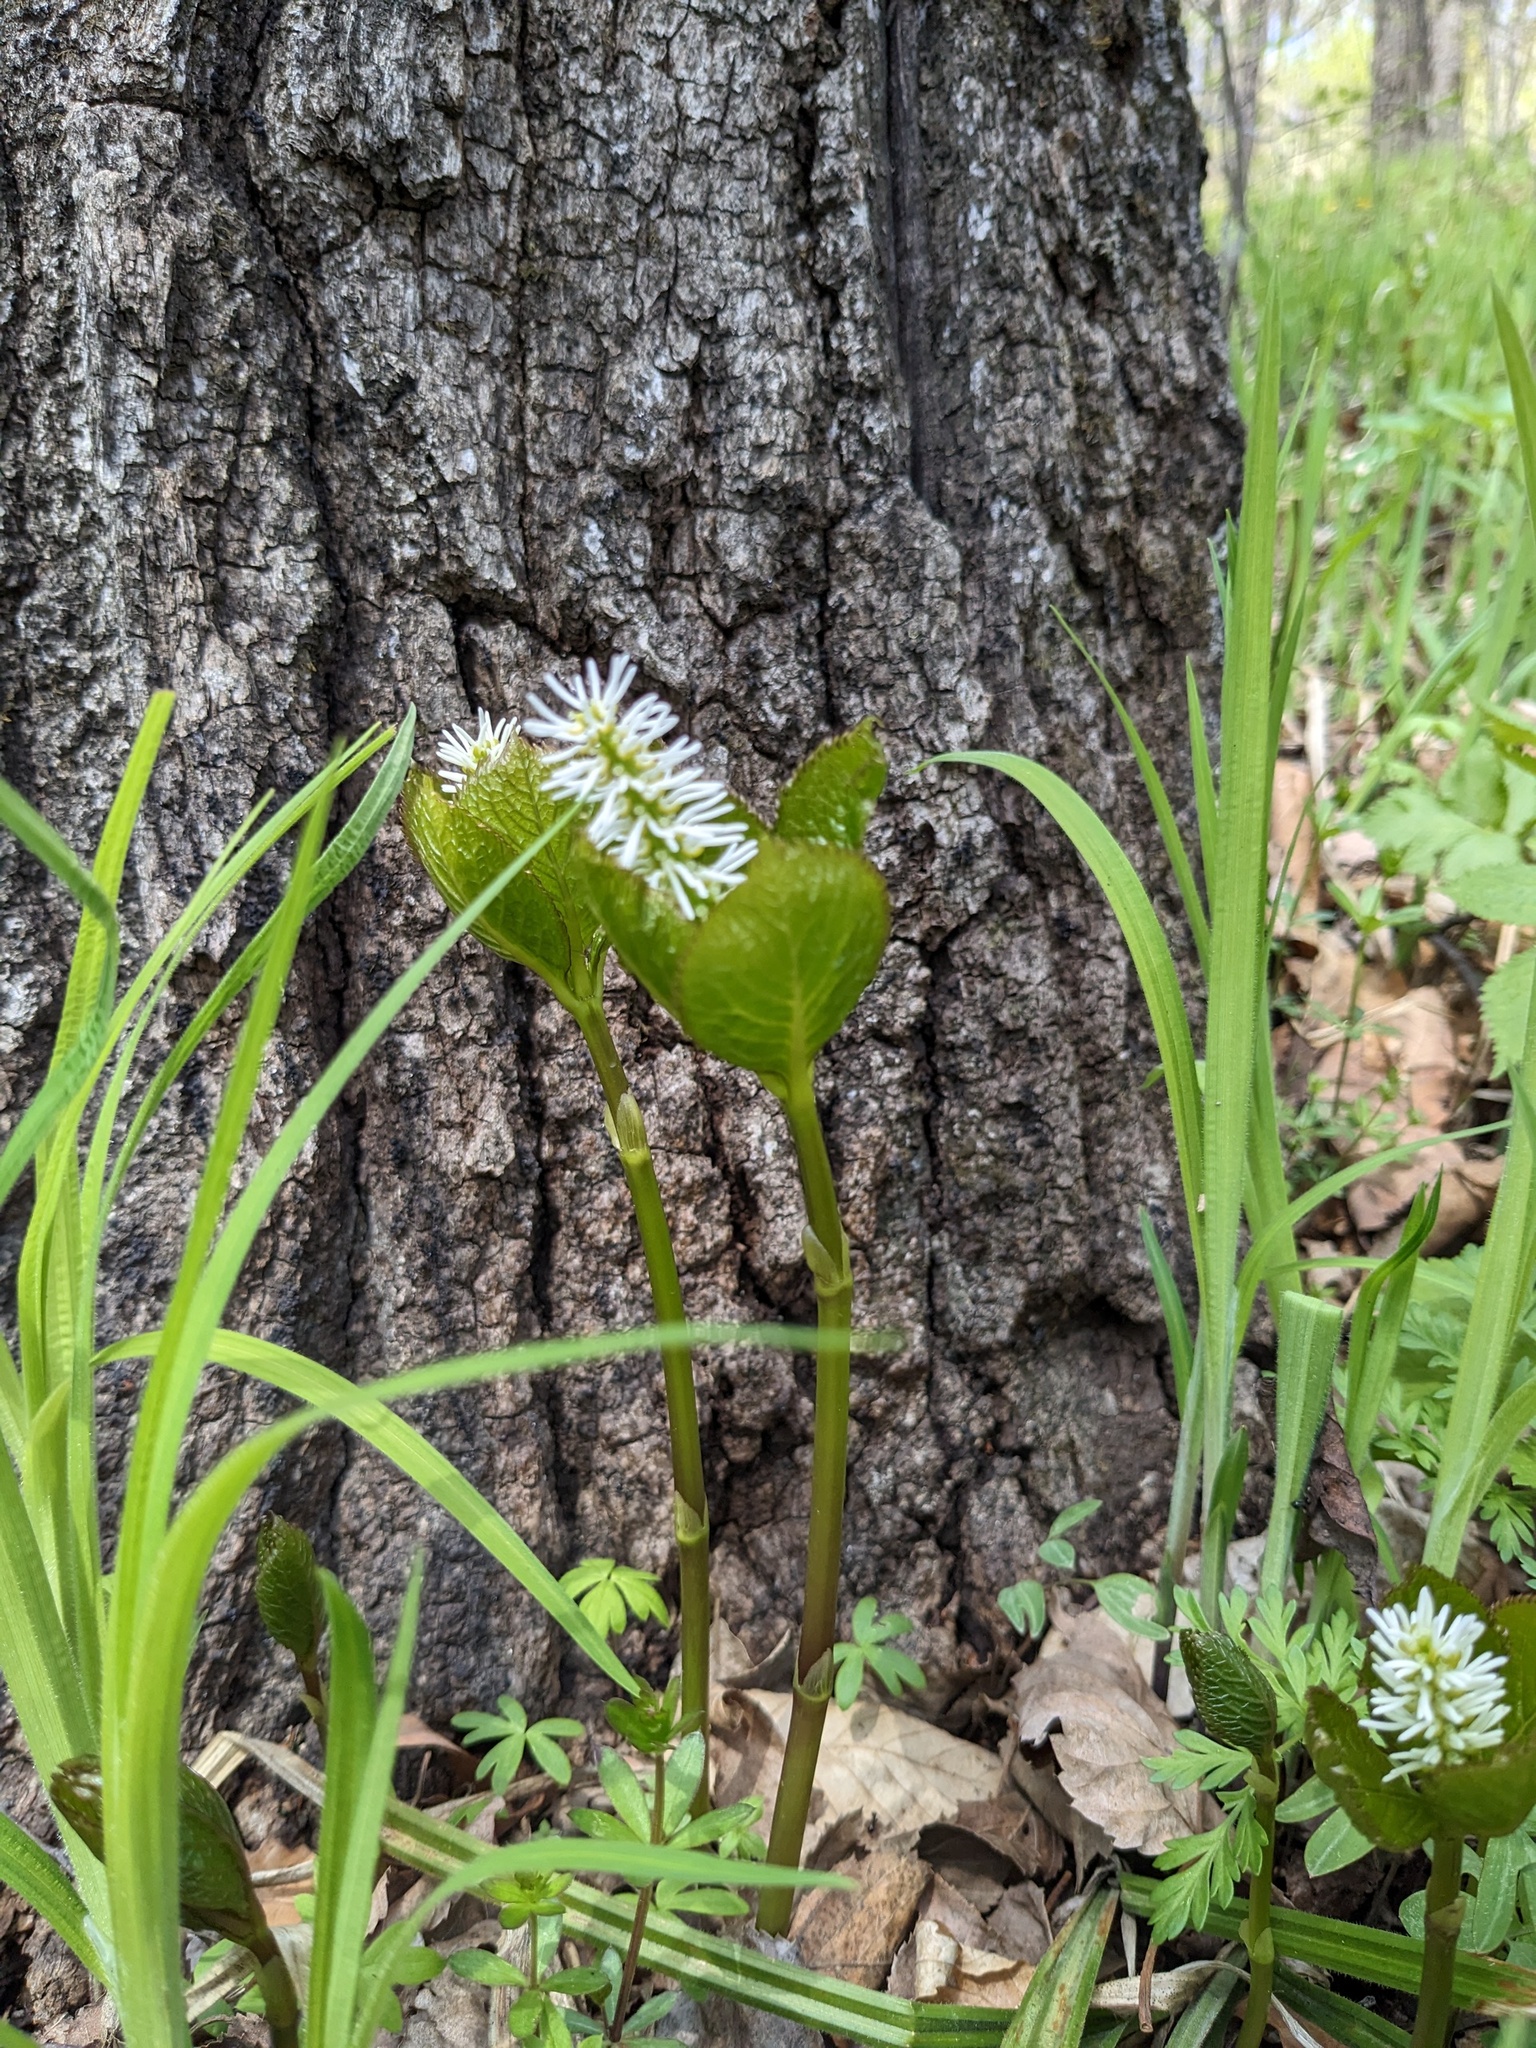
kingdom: Plantae
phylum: Tracheophyta
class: Magnoliopsida
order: Chloranthales
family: Chloranthaceae
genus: Chloranthus
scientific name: Chloranthus quadrifolius
